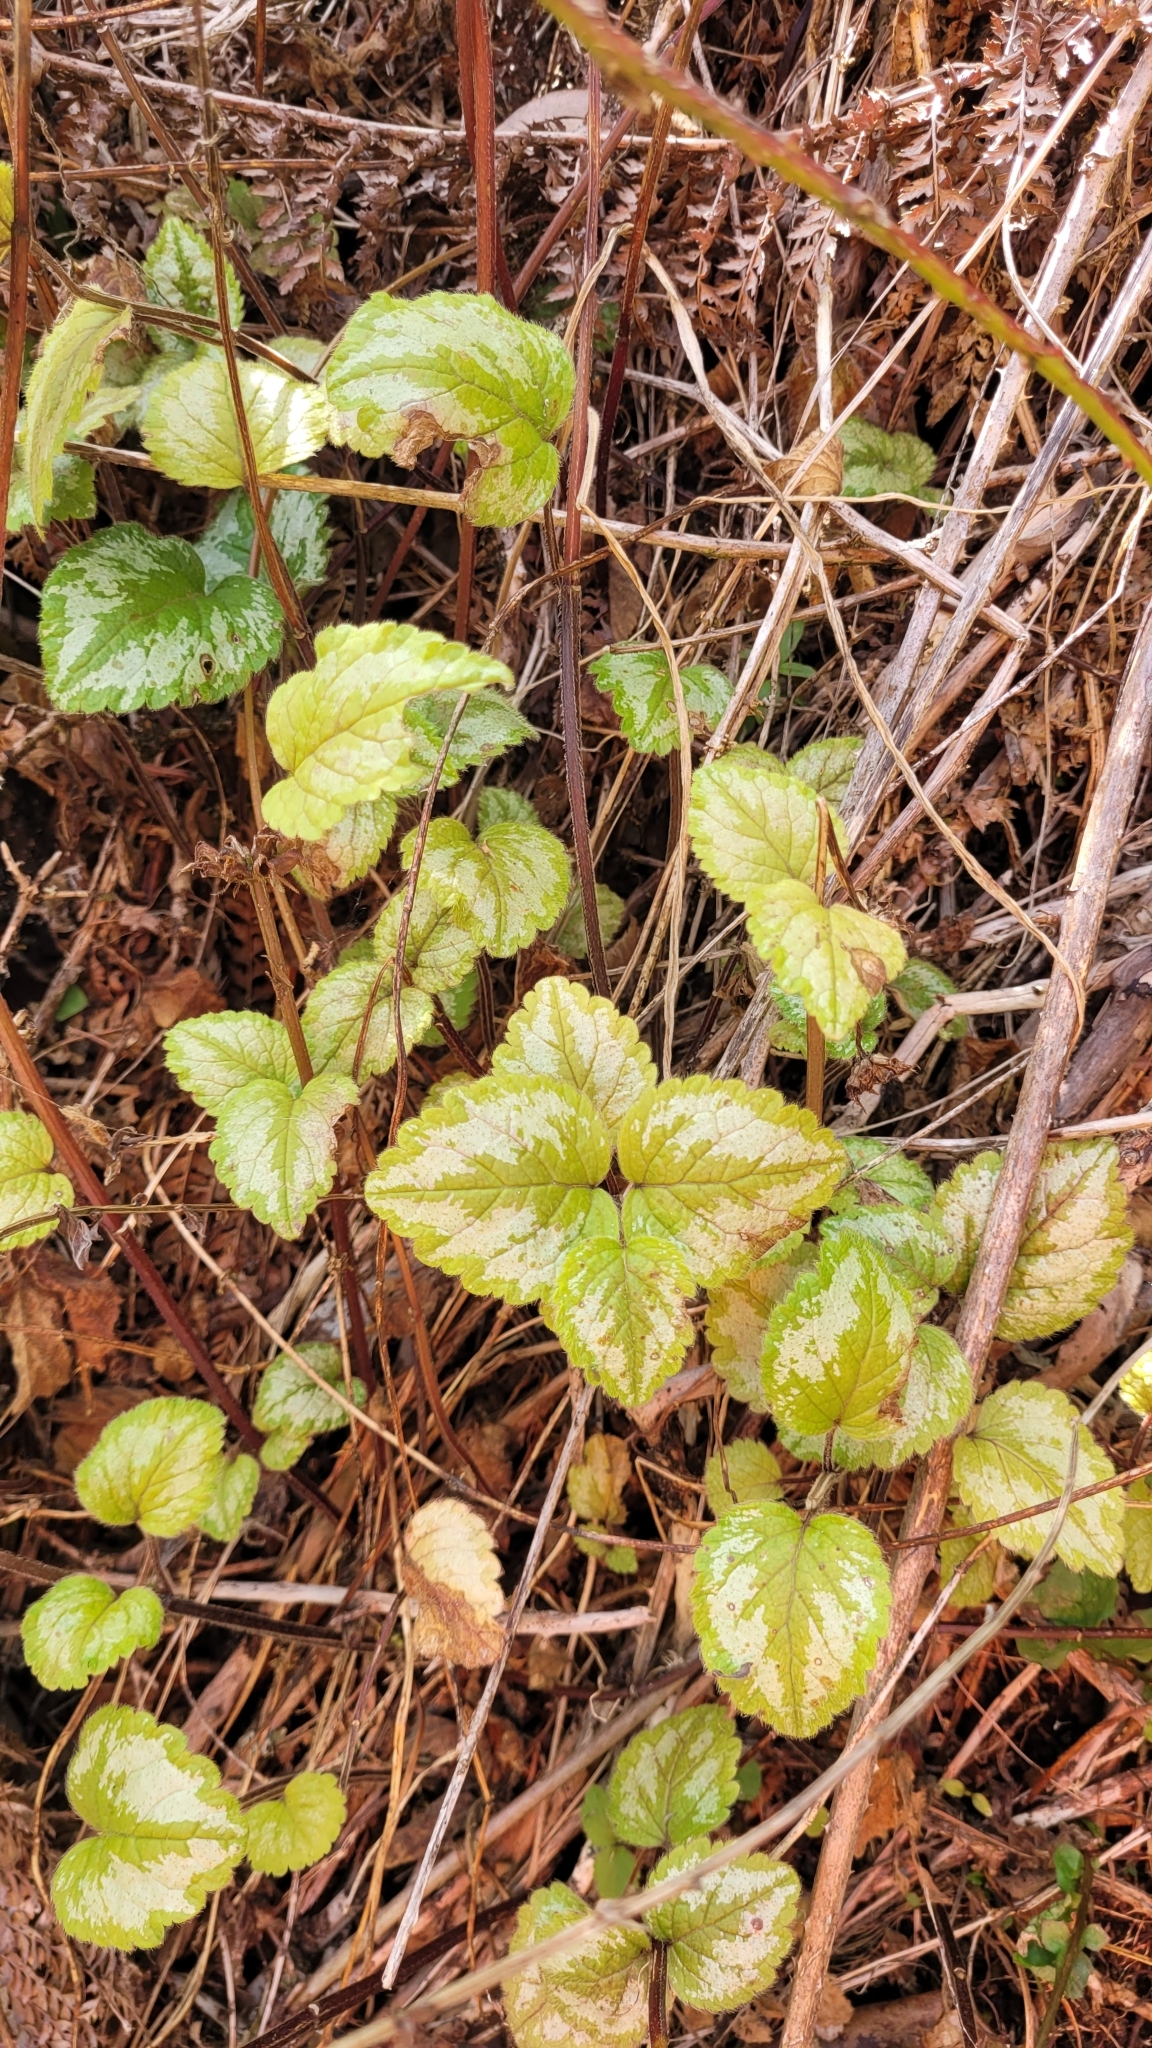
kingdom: Plantae
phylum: Tracheophyta
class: Magnoliopsida
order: Lamiales
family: Lamiaceae
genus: Lamium
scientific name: Lamium galeobdolon
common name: Yellow archangel
